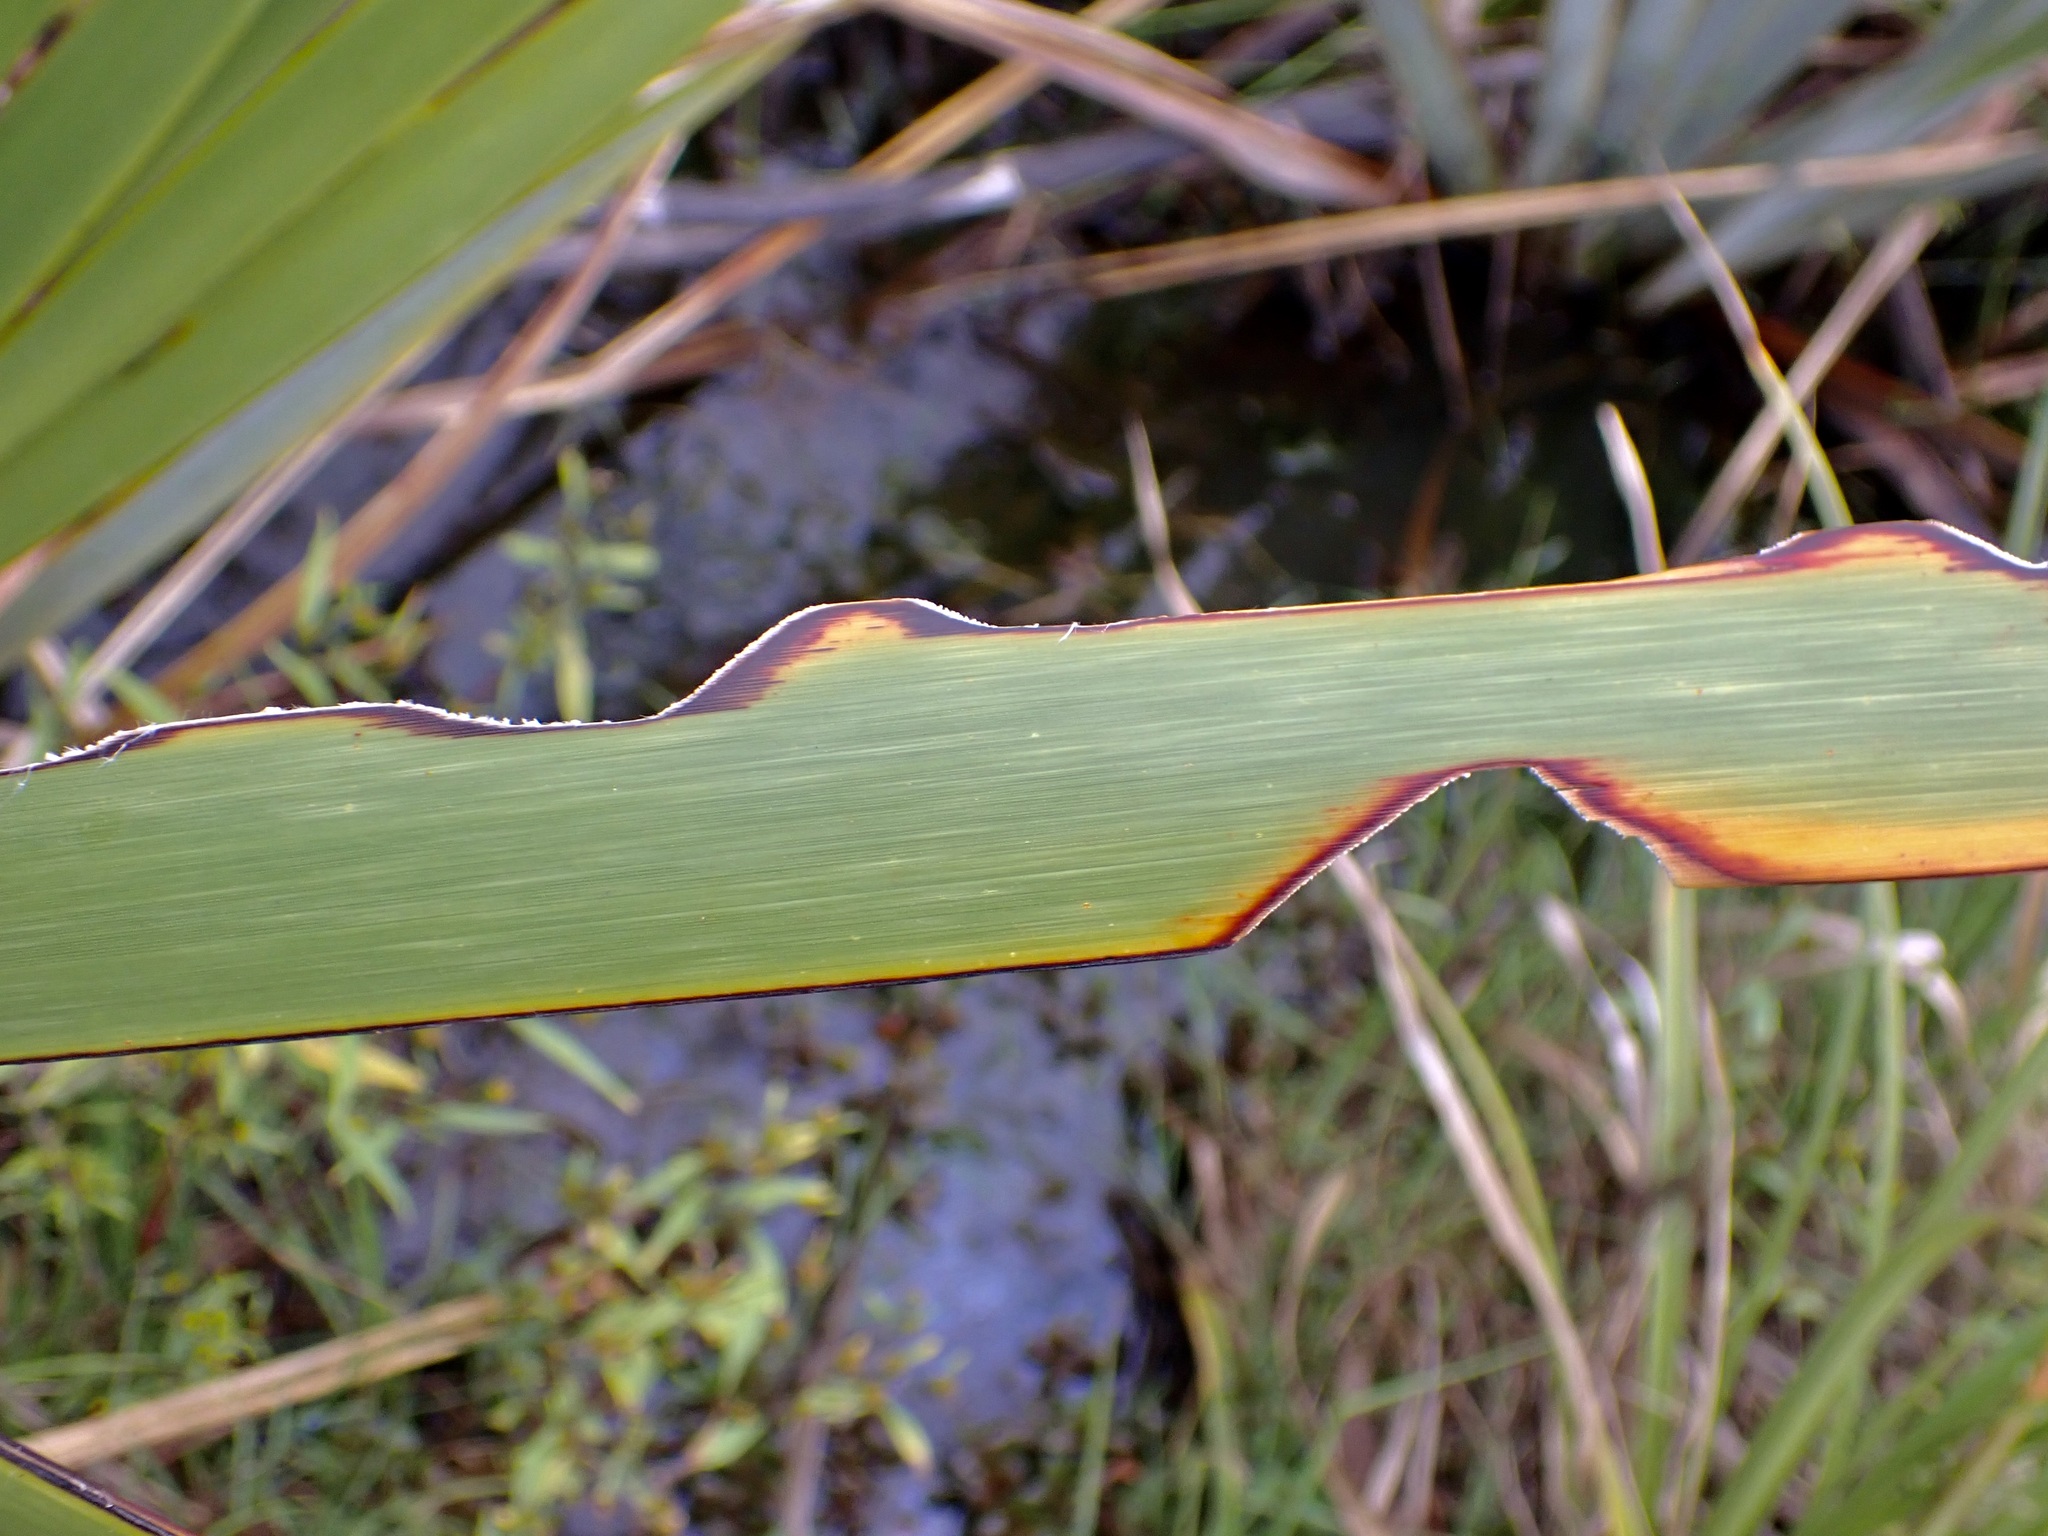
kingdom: Animalia
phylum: Arthropoda
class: Insecta
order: Lepidoptera
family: Noctuidae
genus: Ichneutica
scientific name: Ichneutica
